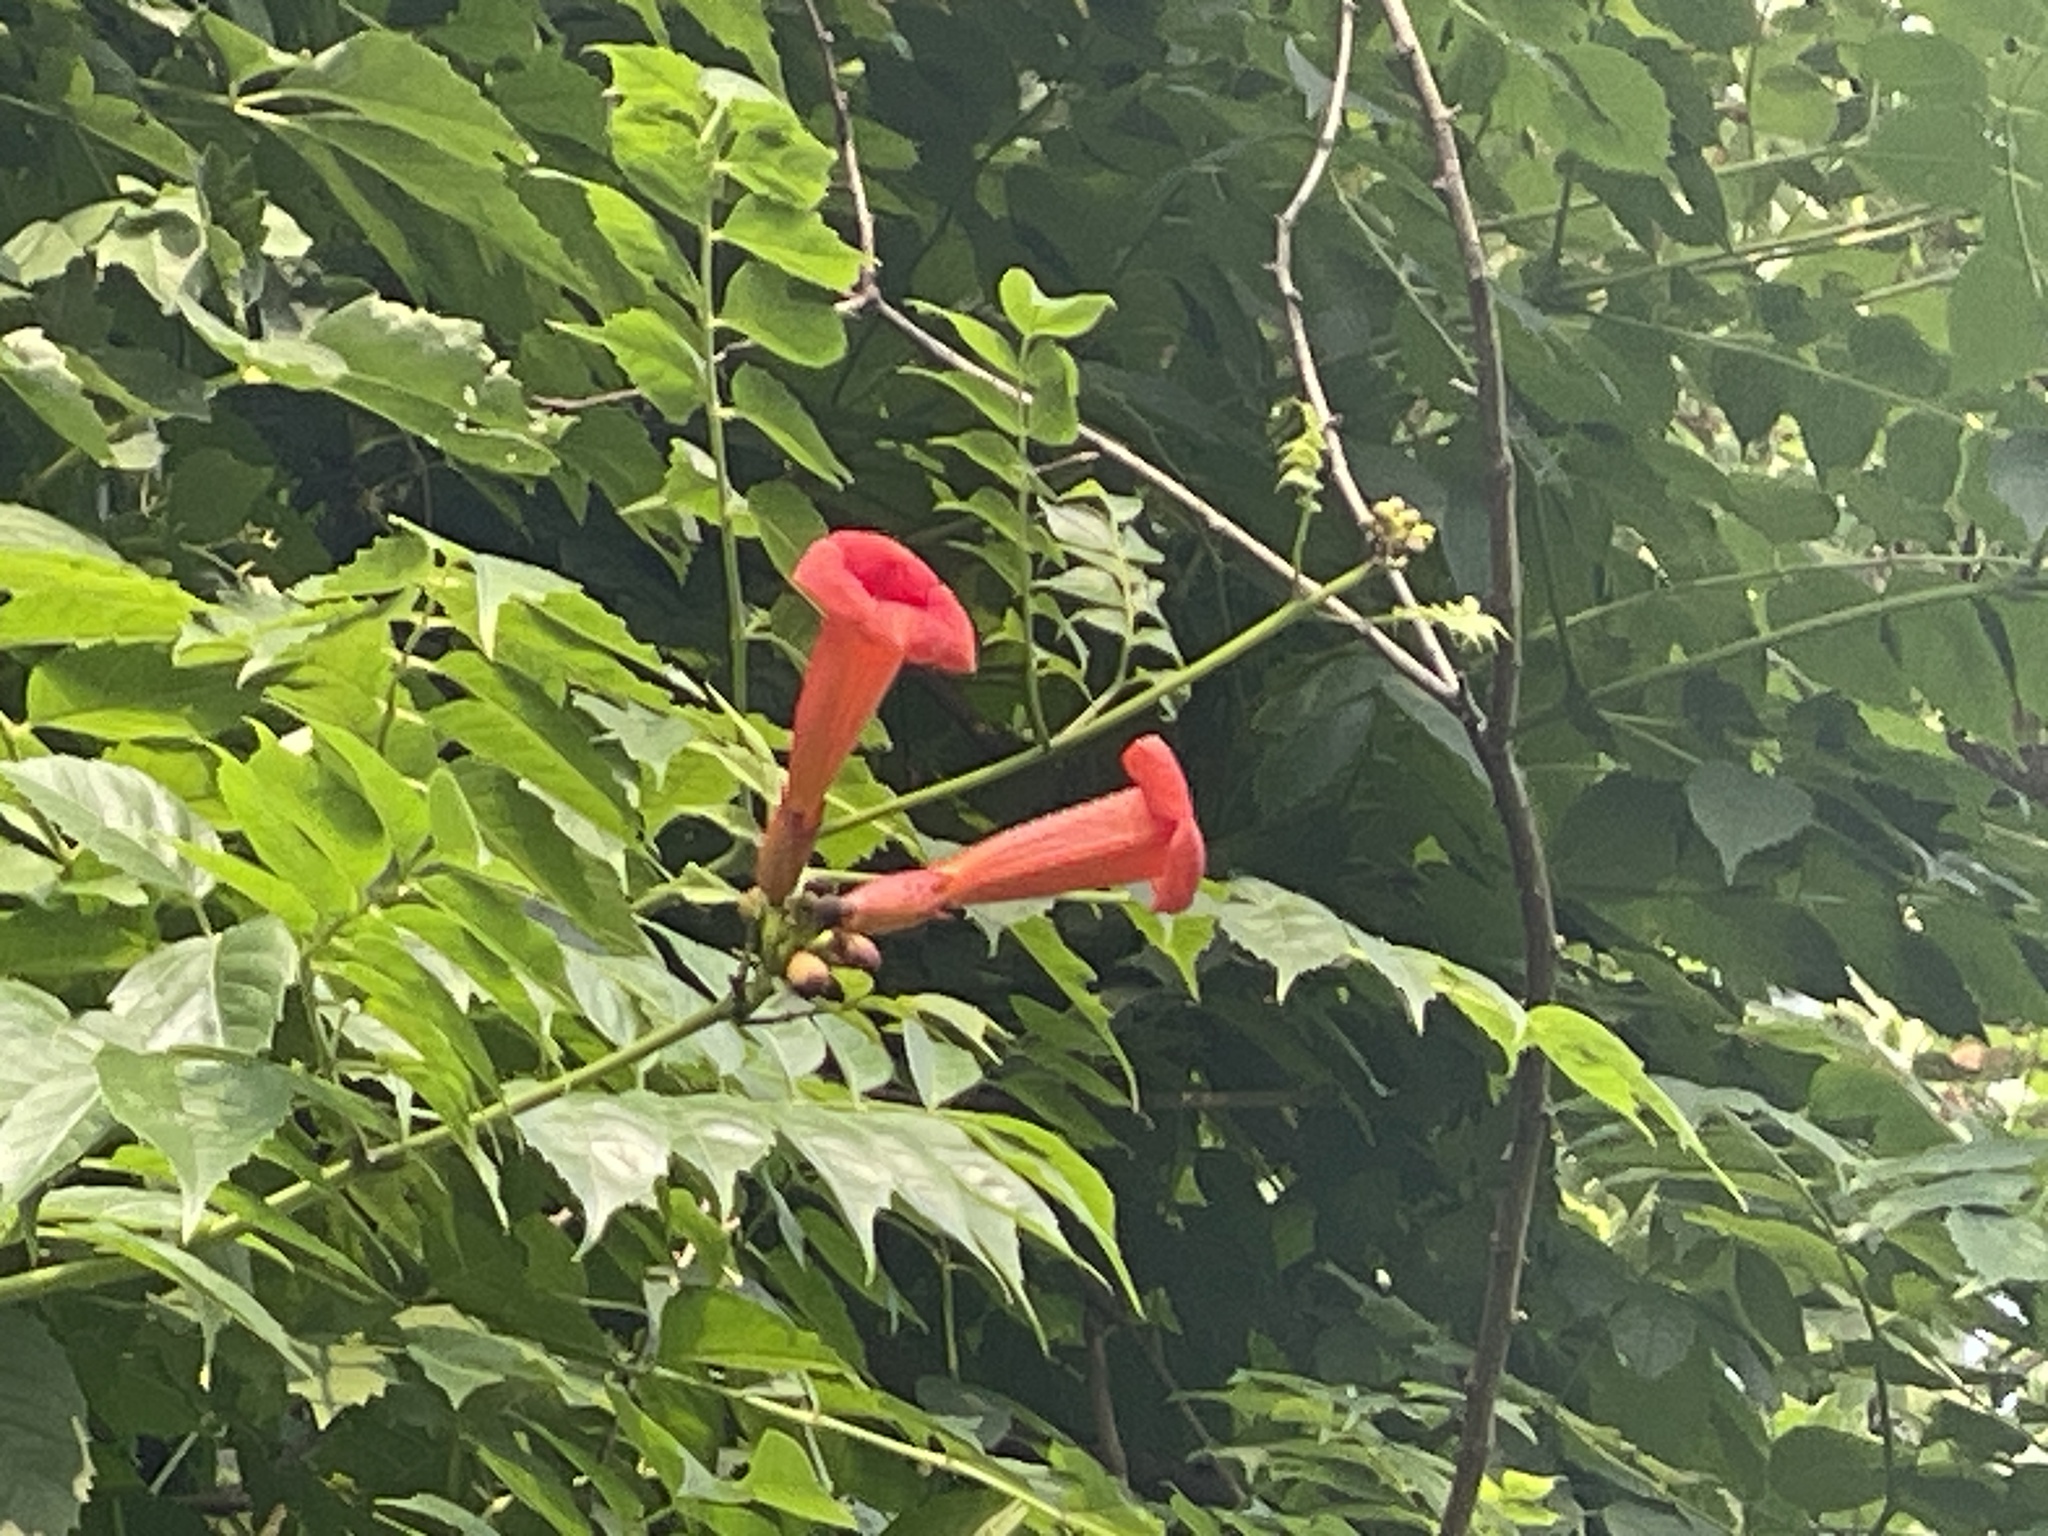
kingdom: Plantae
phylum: Tracheophyta
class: Magnoliopsida
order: Lamiales
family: Bignoniaceae
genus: Campsis
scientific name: Campsis radicans
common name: Trumpet-creeper
